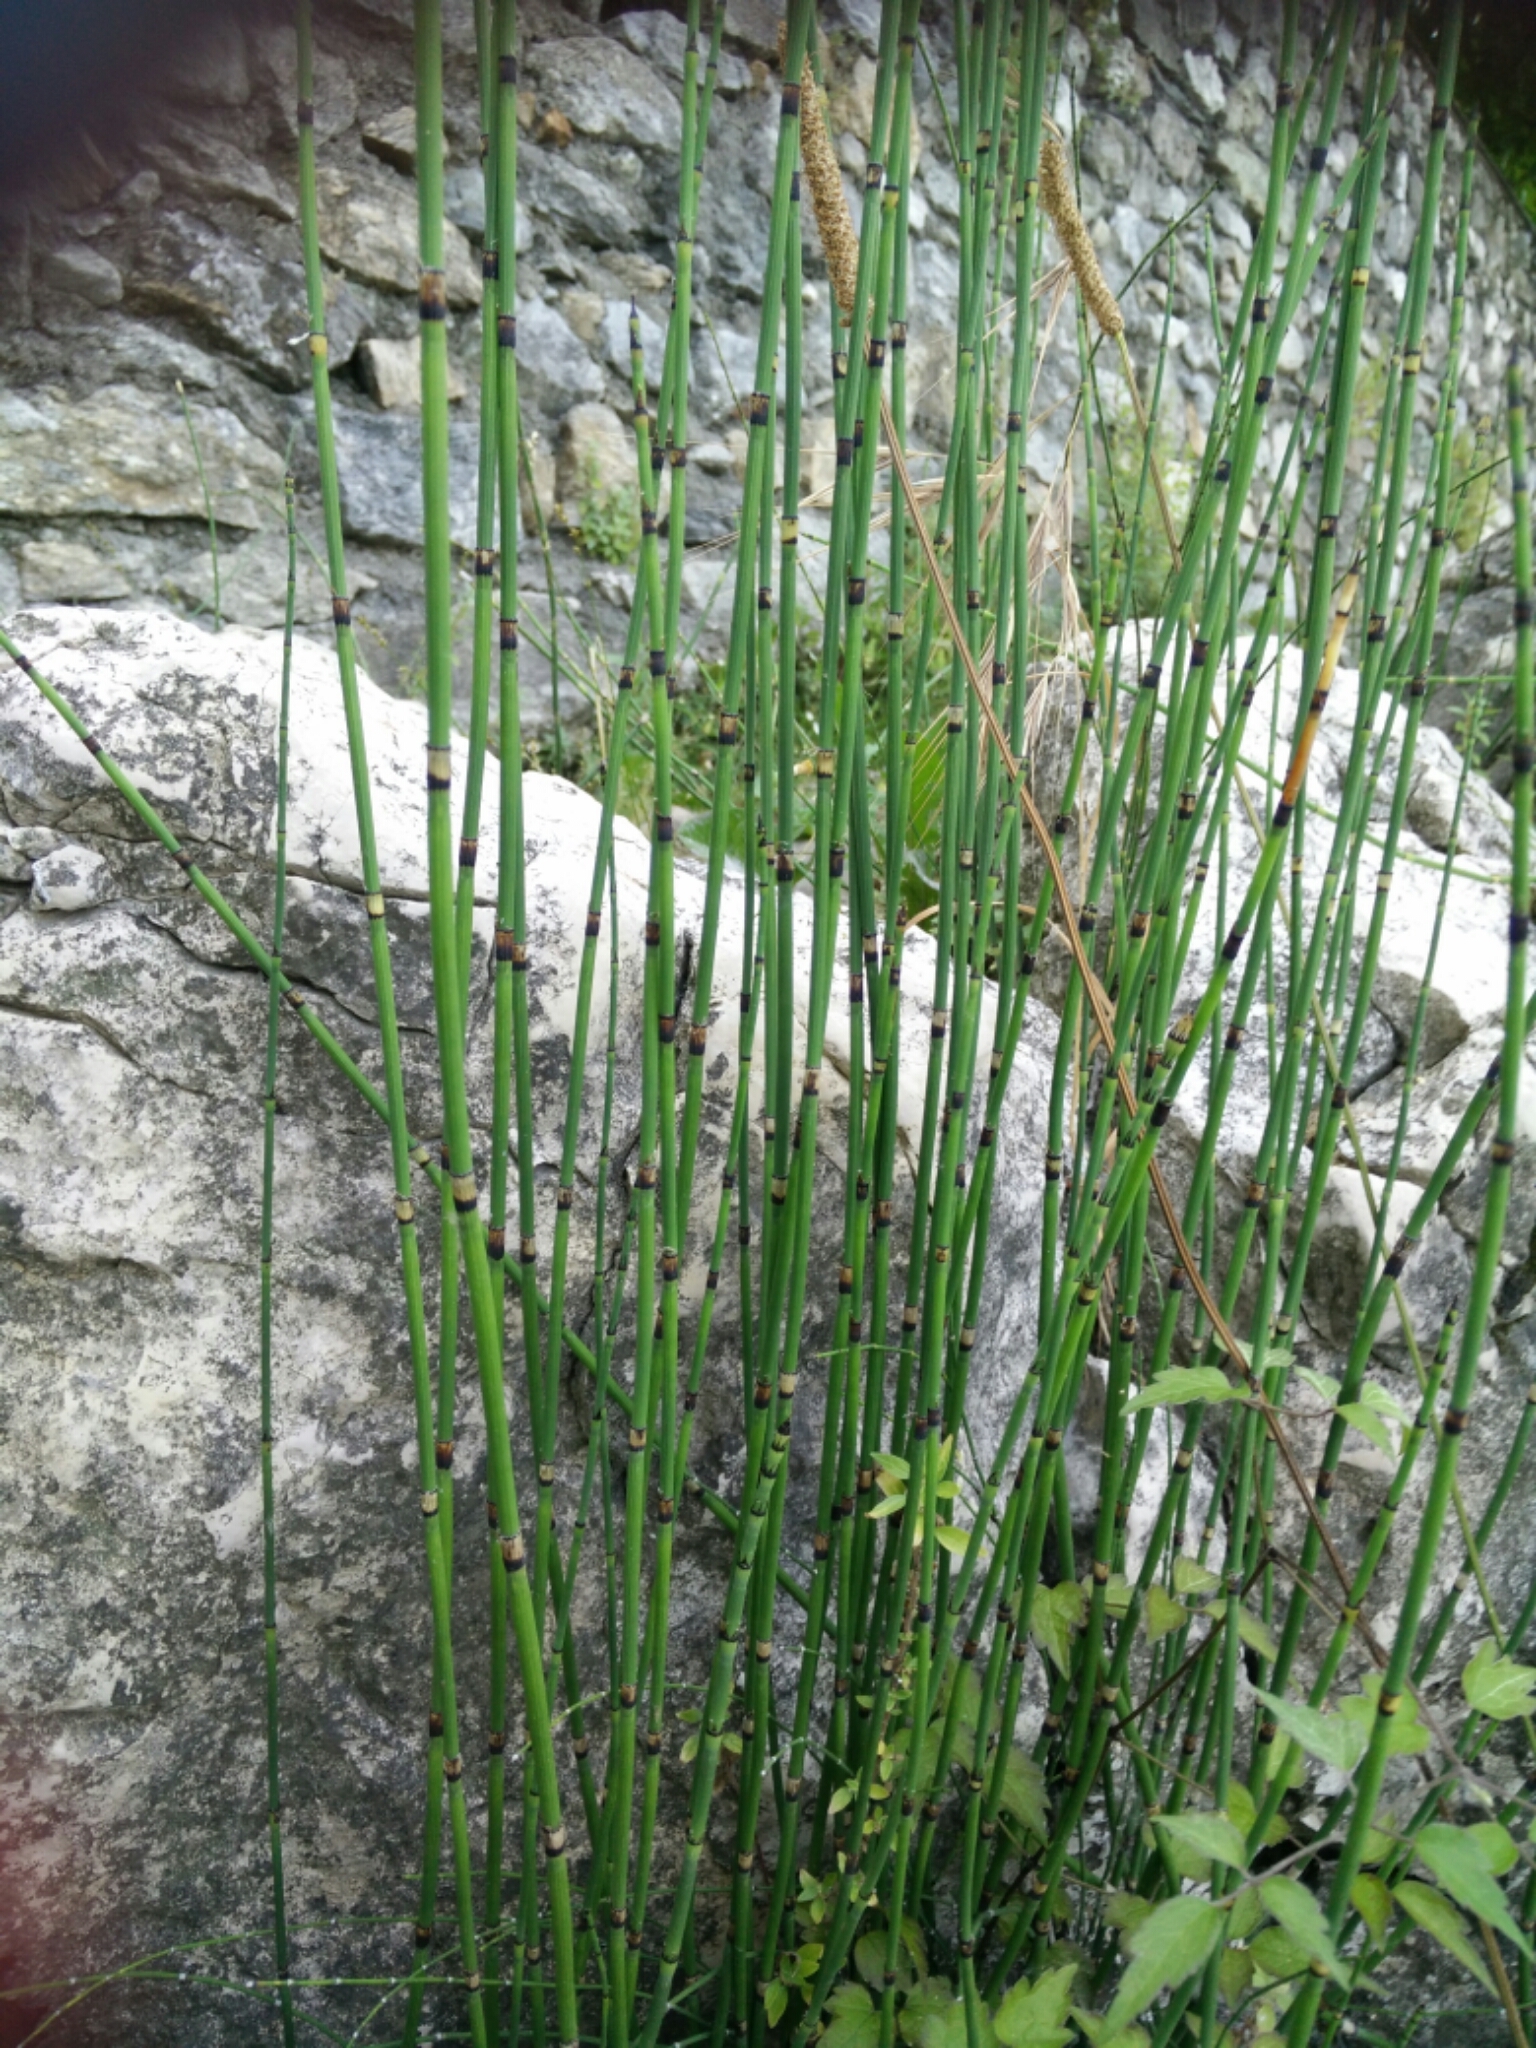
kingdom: Plantae
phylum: Tracheophyta
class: Polypodiopsida
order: Equisetales
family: Equisetaceae
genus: Equisetum
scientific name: Equisetum moorei
